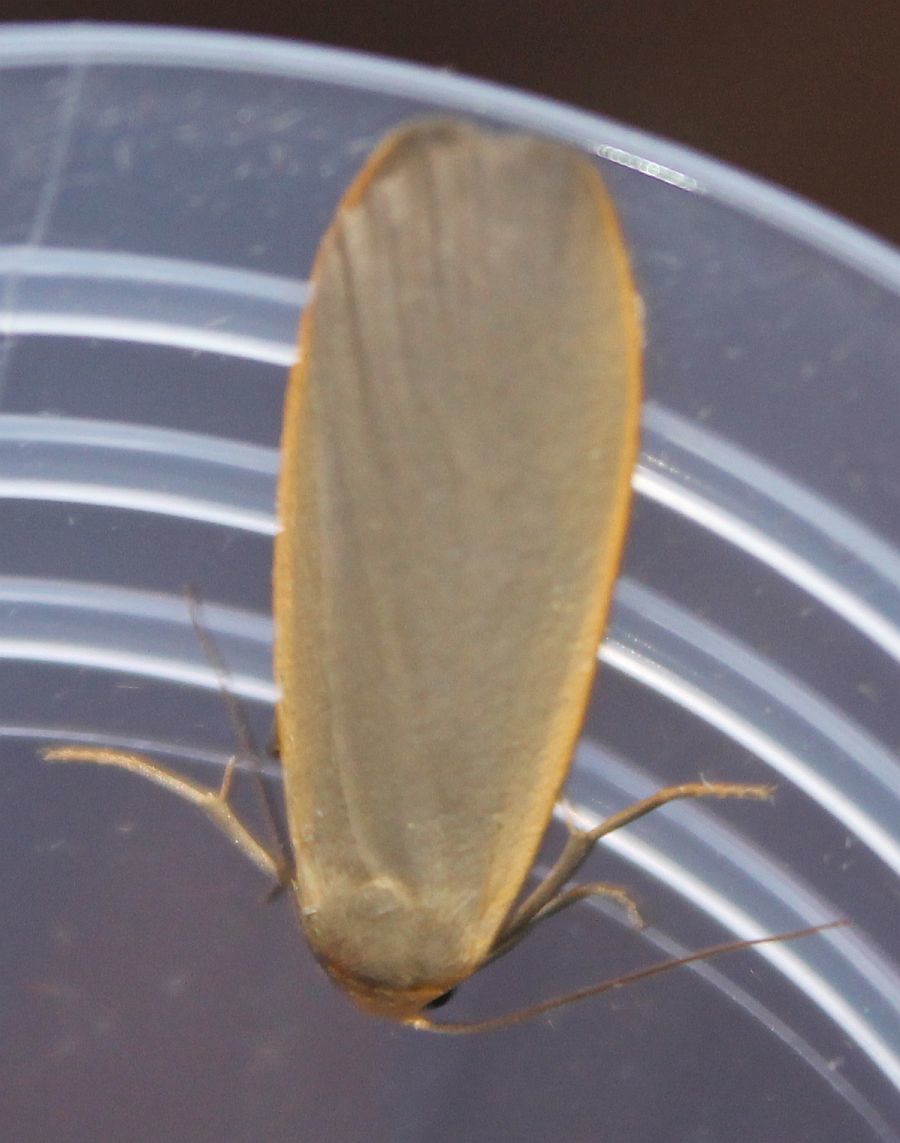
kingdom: Animalia
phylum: Arthropoda
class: Insecta
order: Lepidoptera
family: Erebidae
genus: Collita
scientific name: Collita griseola
